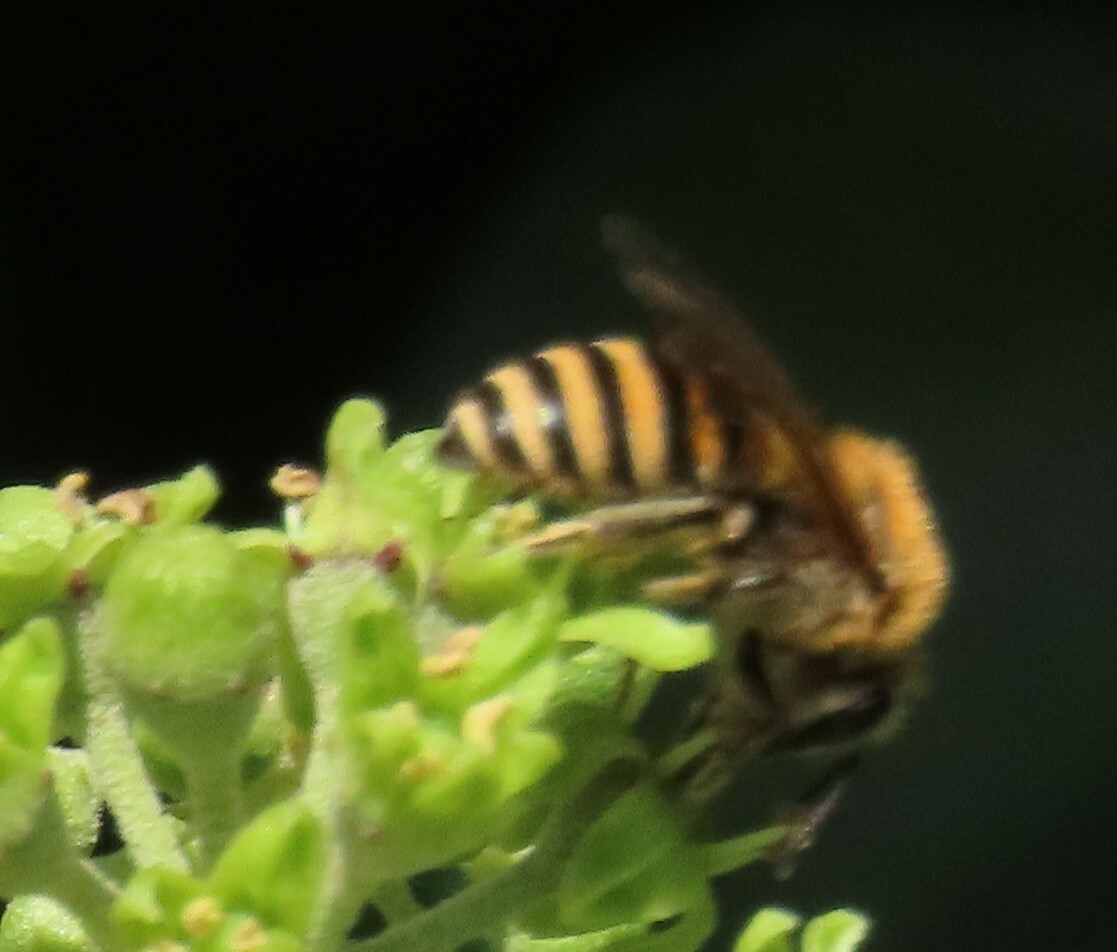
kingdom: Animalia
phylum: Arthropoda
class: Insecta
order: Hymenoptera
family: Colletidae
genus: Colletes
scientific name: Colletes hederae
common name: Ivy bee
